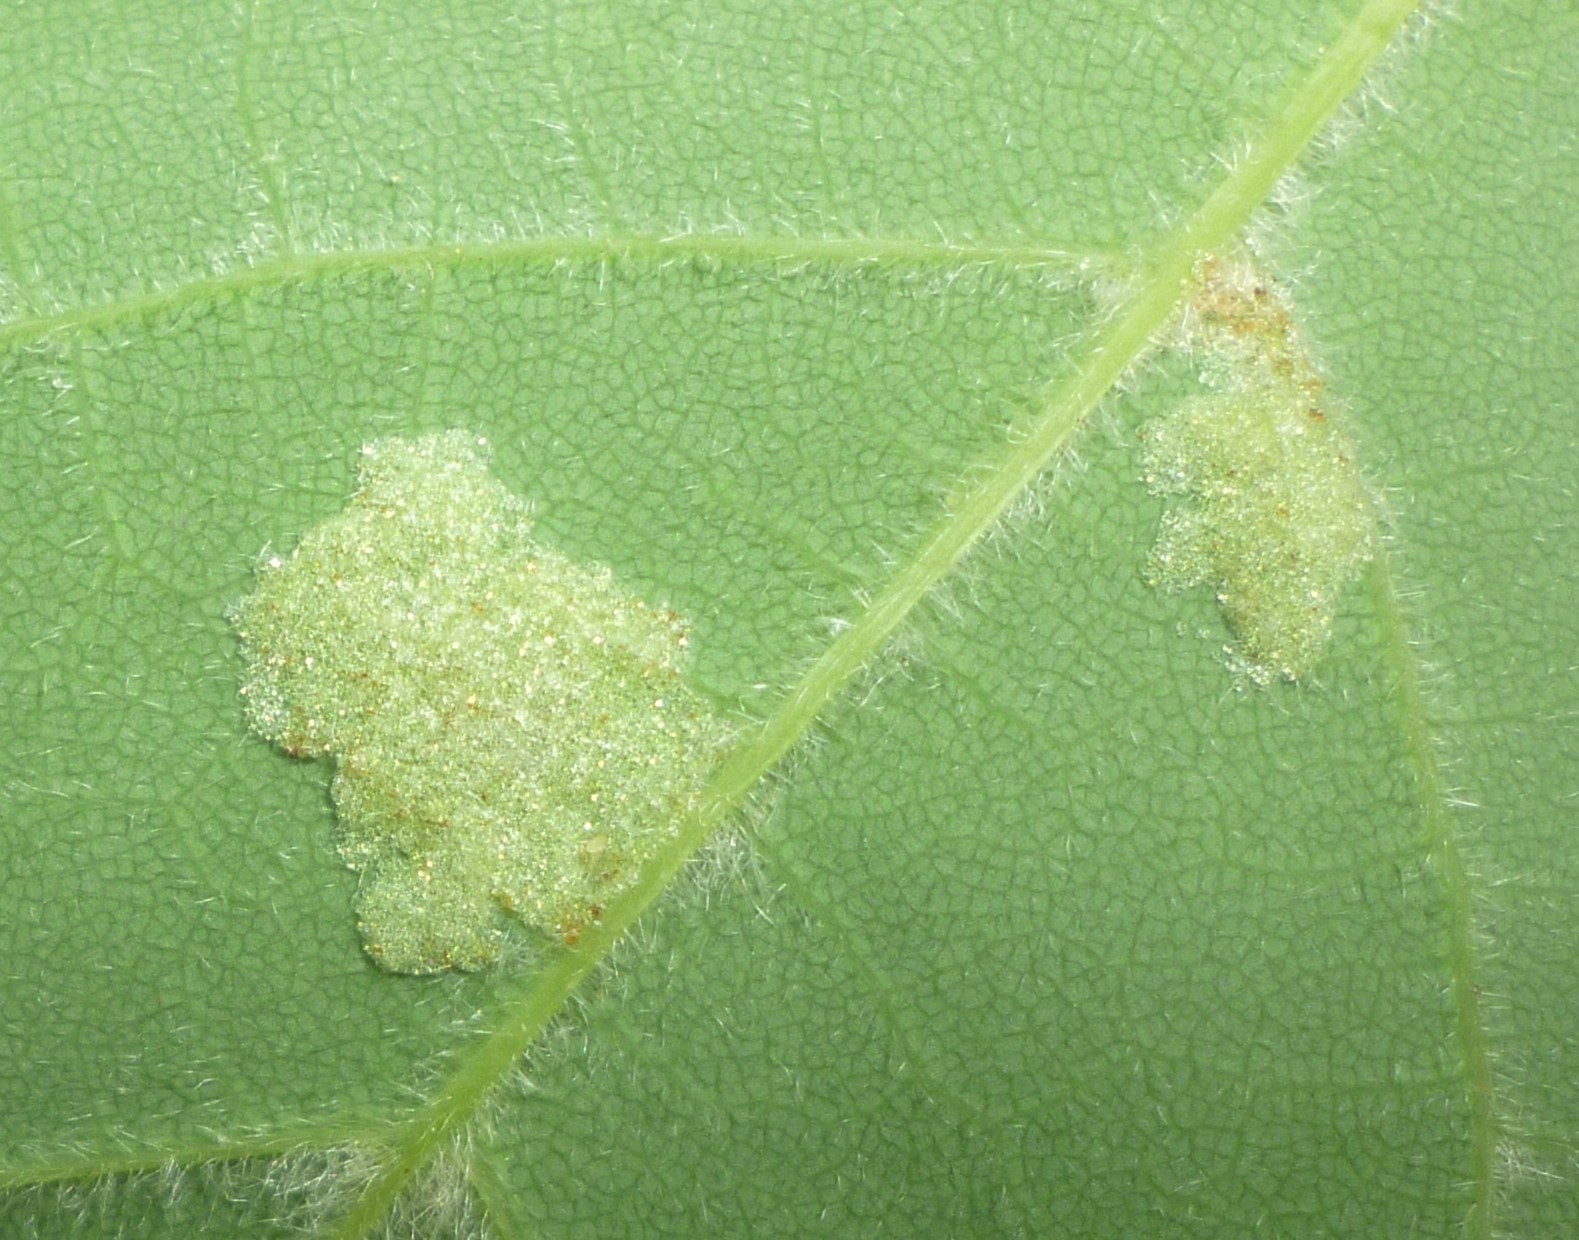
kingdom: Animalia
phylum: Arthropoda
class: Arachnida
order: Trombidiformes
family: Eriophyidae
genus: Aceria
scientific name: Aceria
